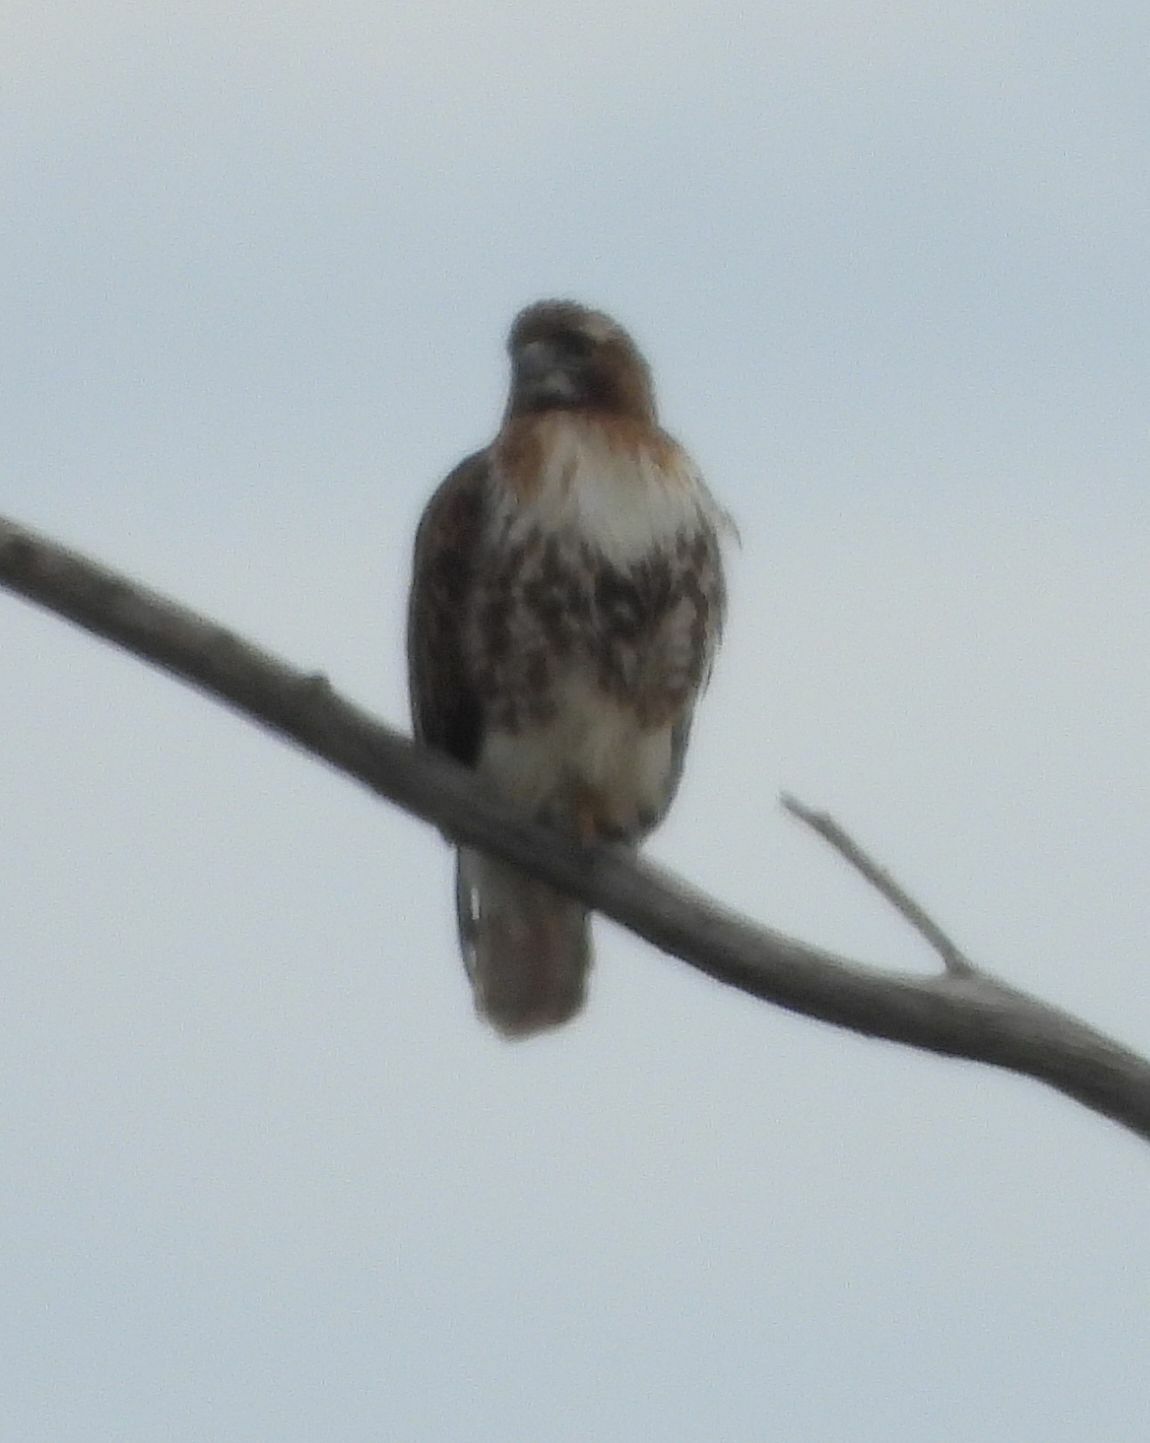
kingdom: Animalia
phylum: Chordata
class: Aves
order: Accipitriformes
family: Accipitridae
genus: Buteo
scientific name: Buteo jamaicensis
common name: Red-tailed hawk
